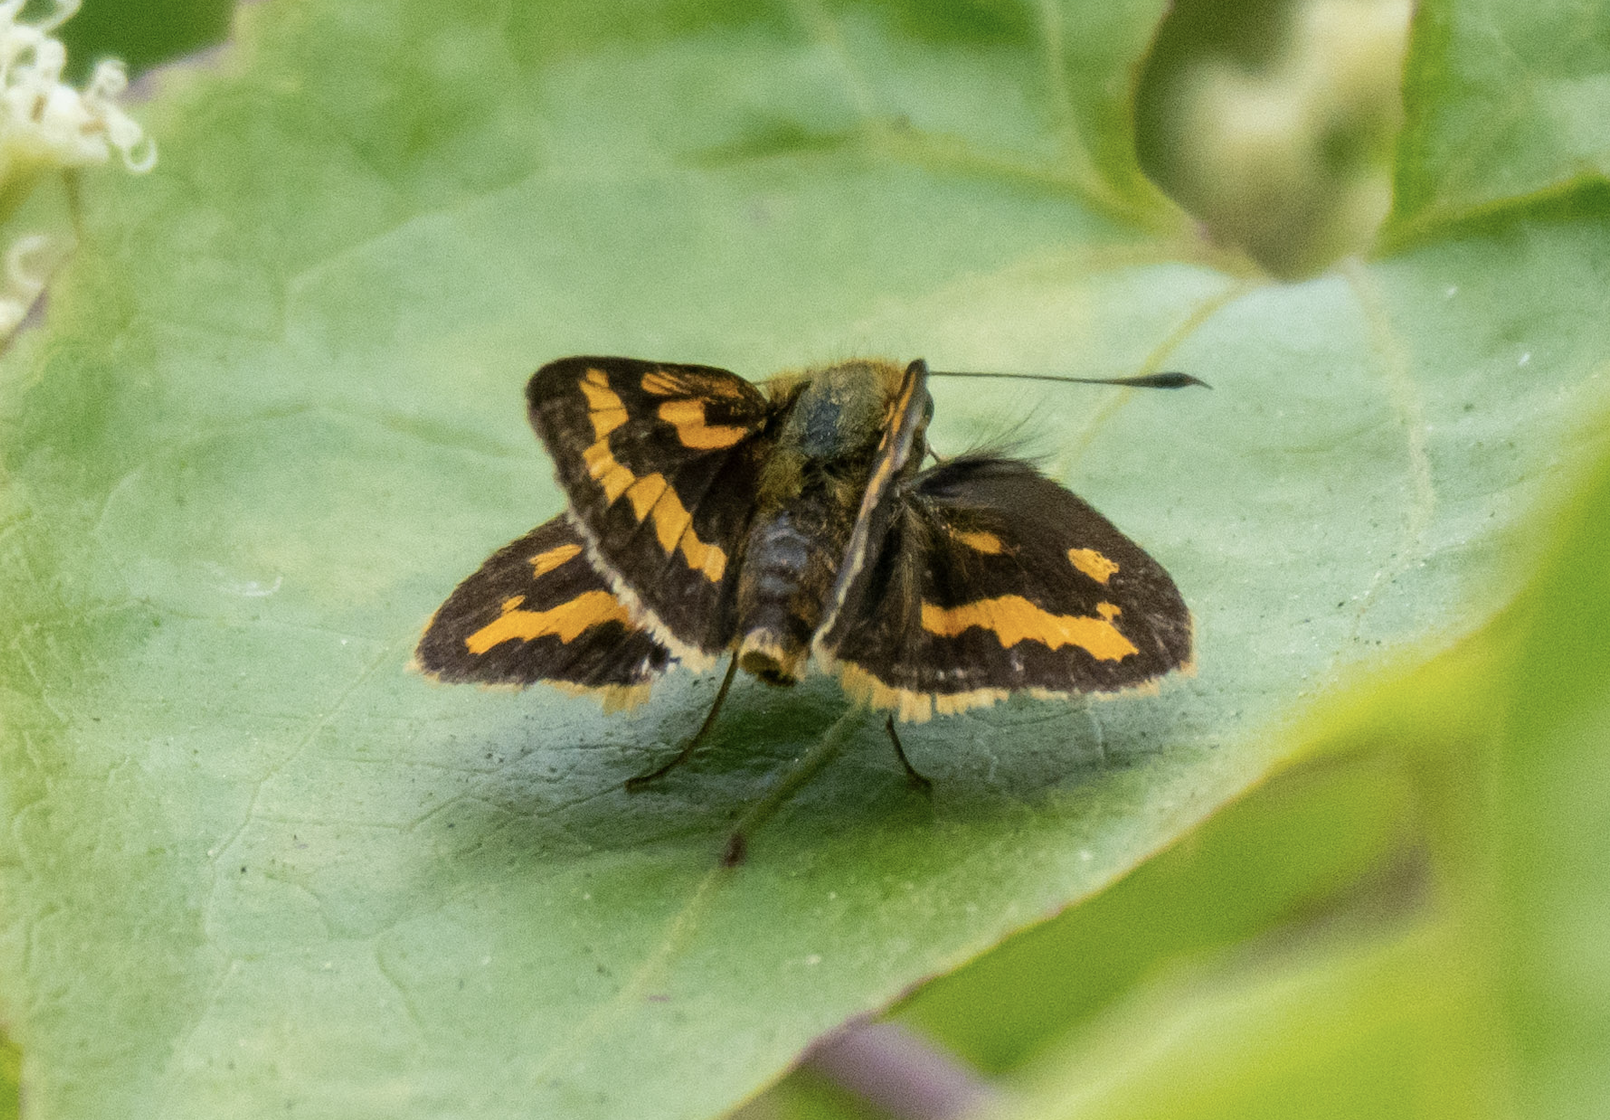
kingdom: Animalia
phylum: Arthropoda
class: Insecta
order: Lepidoptera
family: Hesperiidae
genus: Potanthus
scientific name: Potanthus confucius
